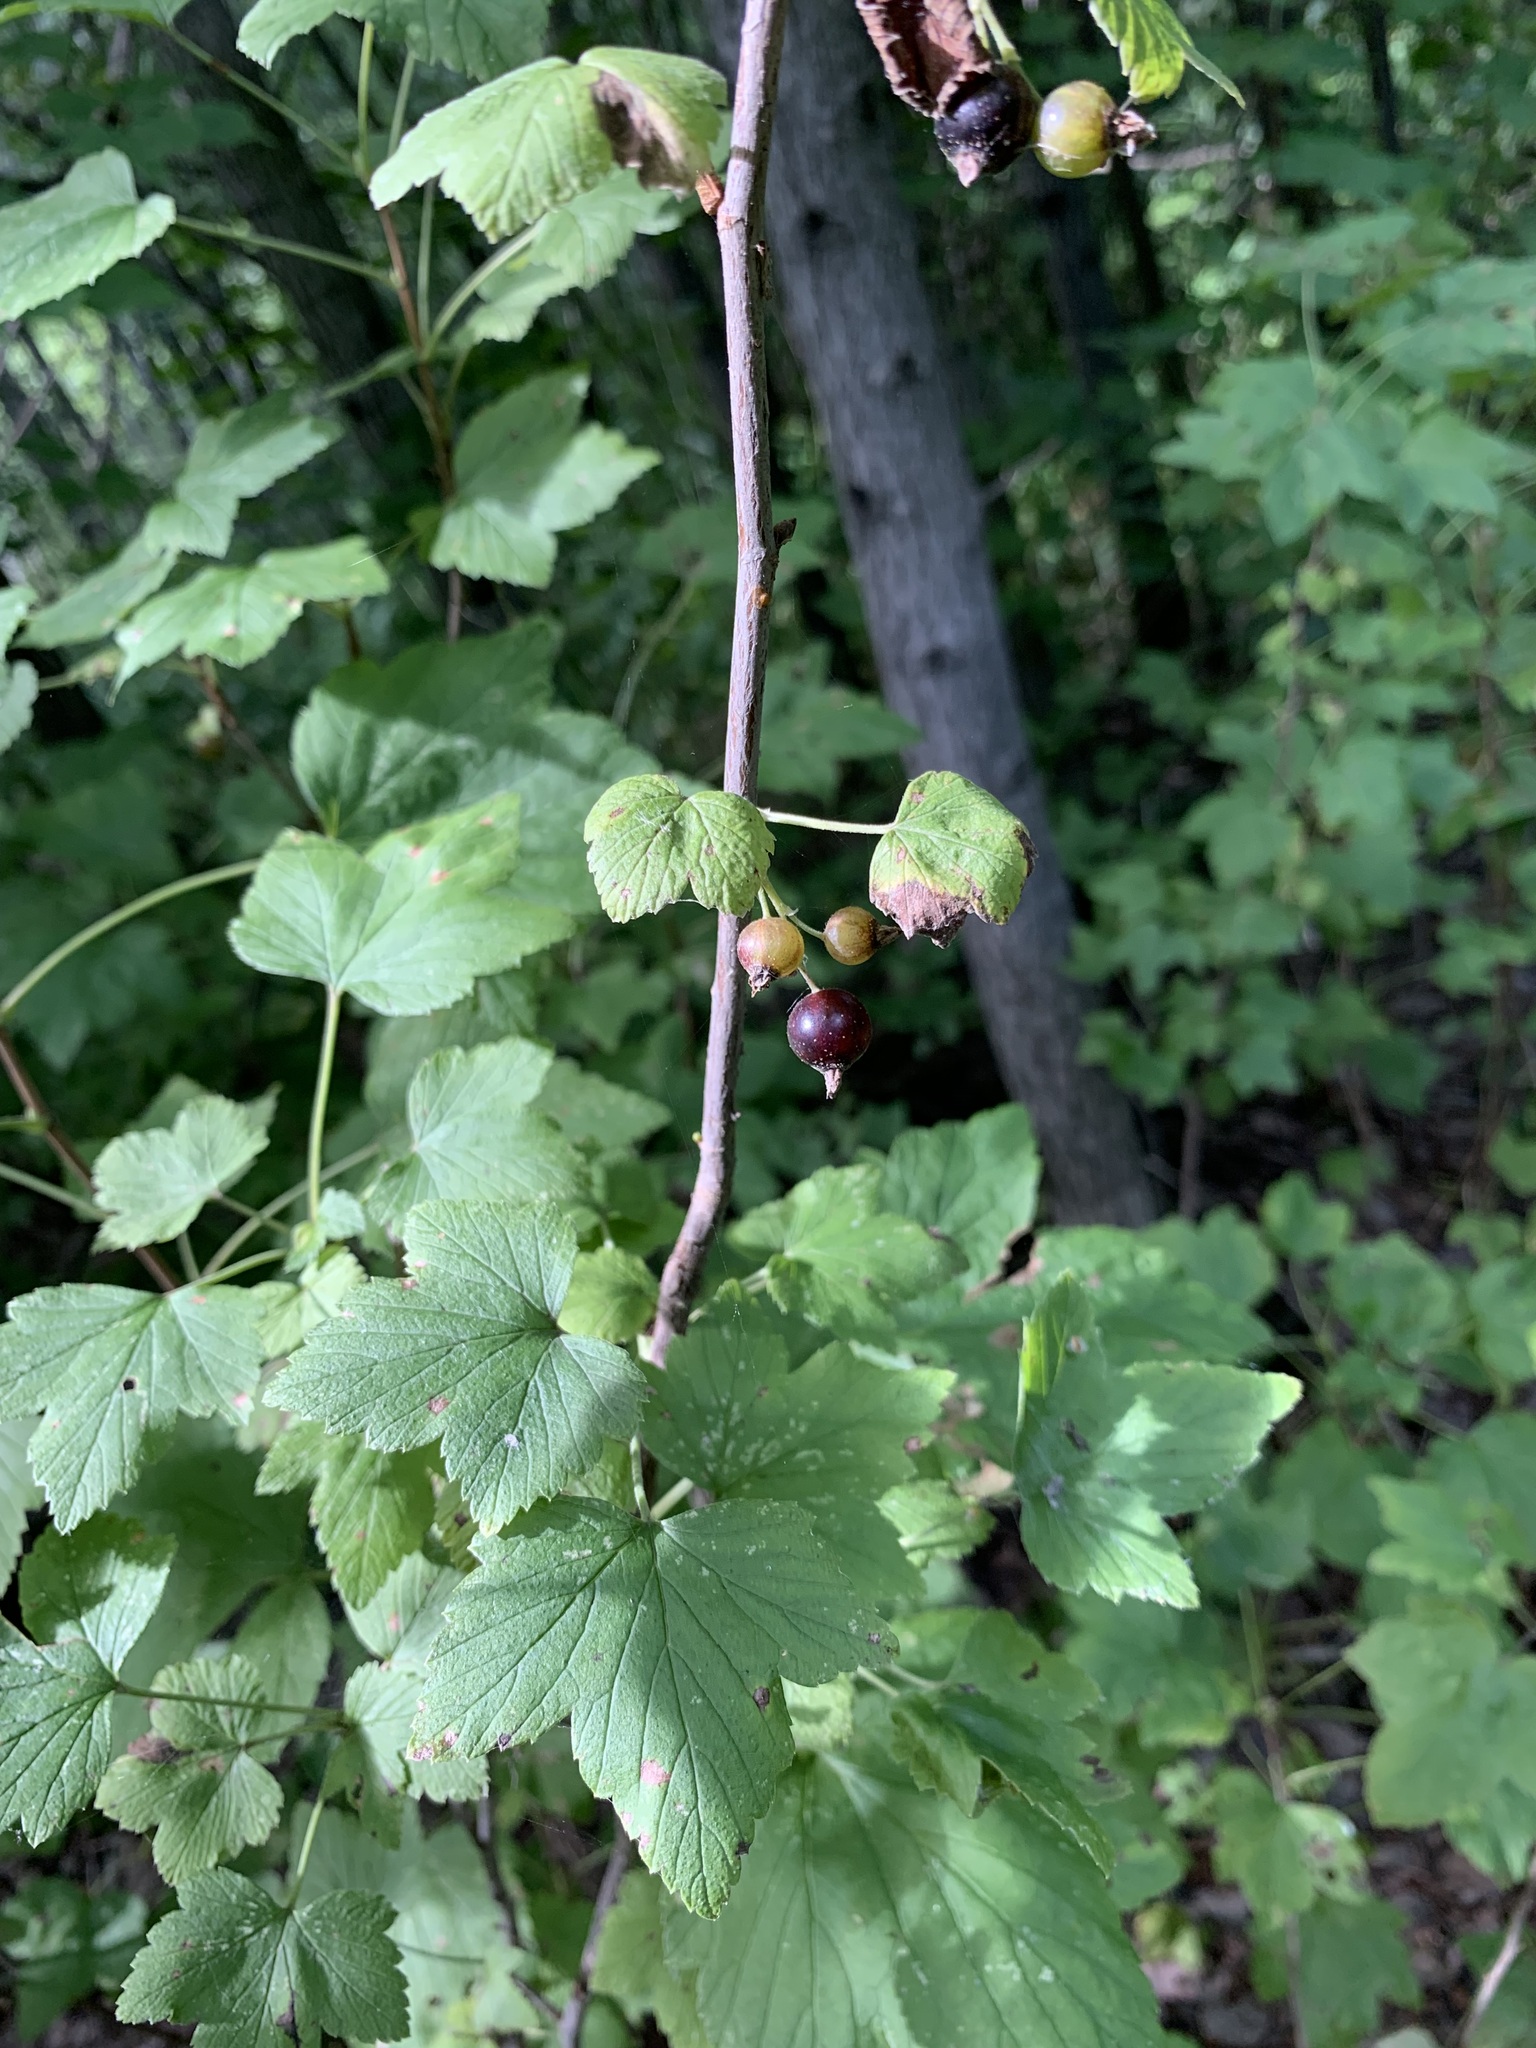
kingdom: Plantae
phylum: Tracheophyta
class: Magnoliopsida
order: Saxifragales
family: Grossulariaceae
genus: Ribes
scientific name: Ribes nigrum
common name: Black currant
